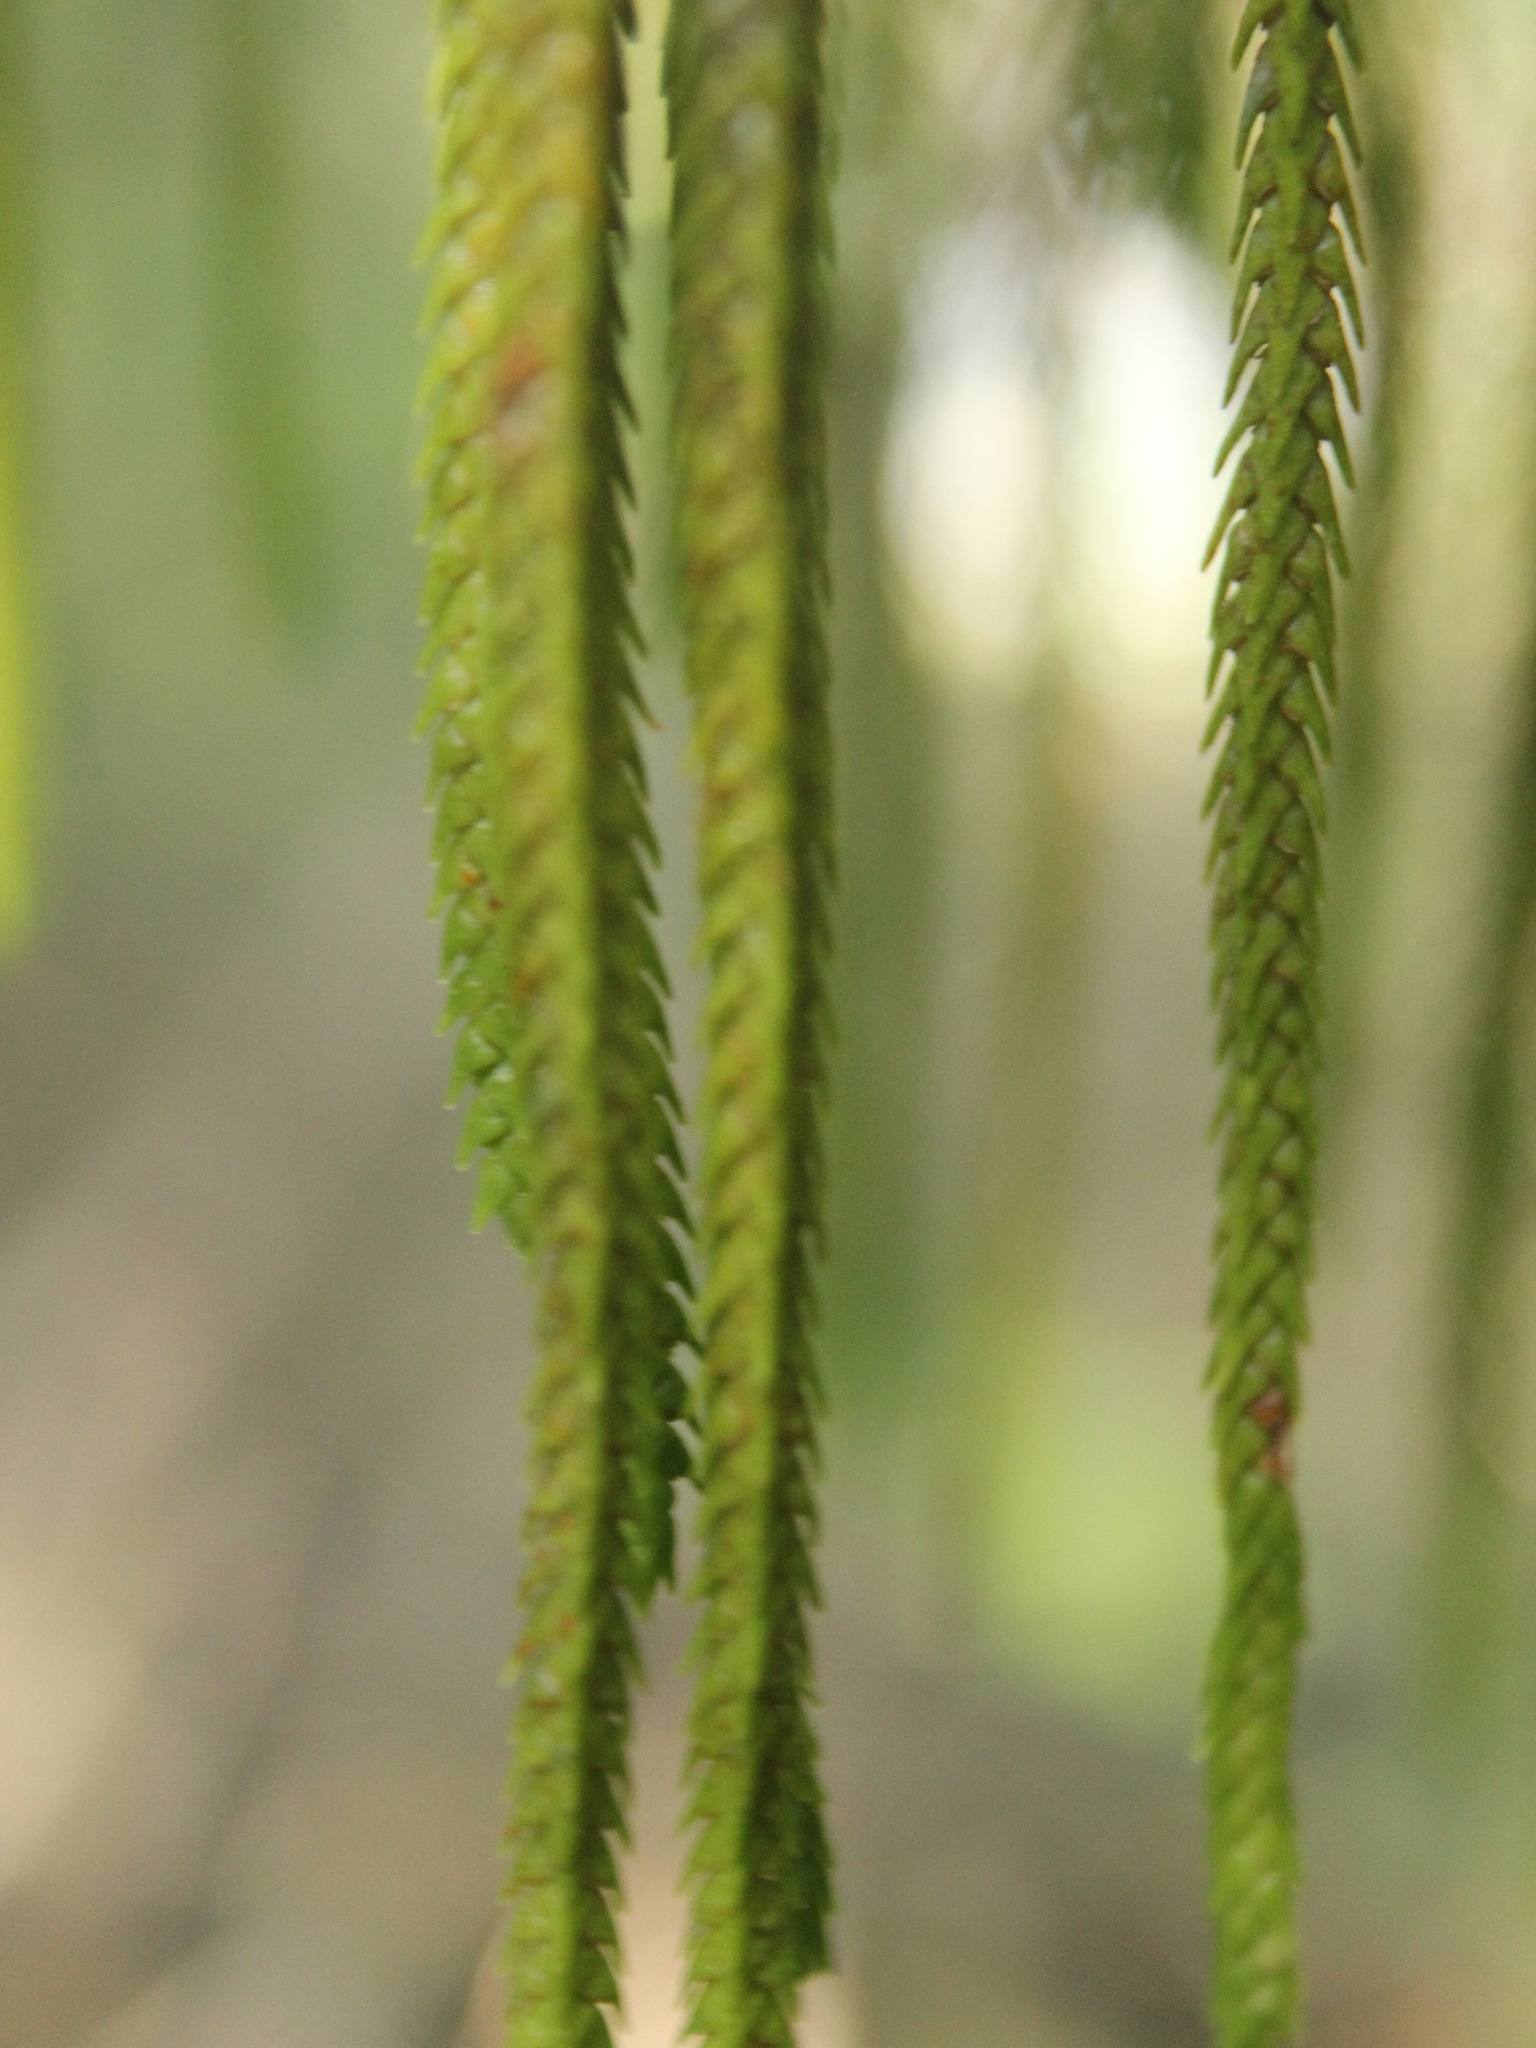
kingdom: Plantae
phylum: Tracheophyta
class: Lycopodiopsida
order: Lycopodiales
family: Lycopodiaceae
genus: Phlegmariurus
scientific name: Phlegmariurus varius
